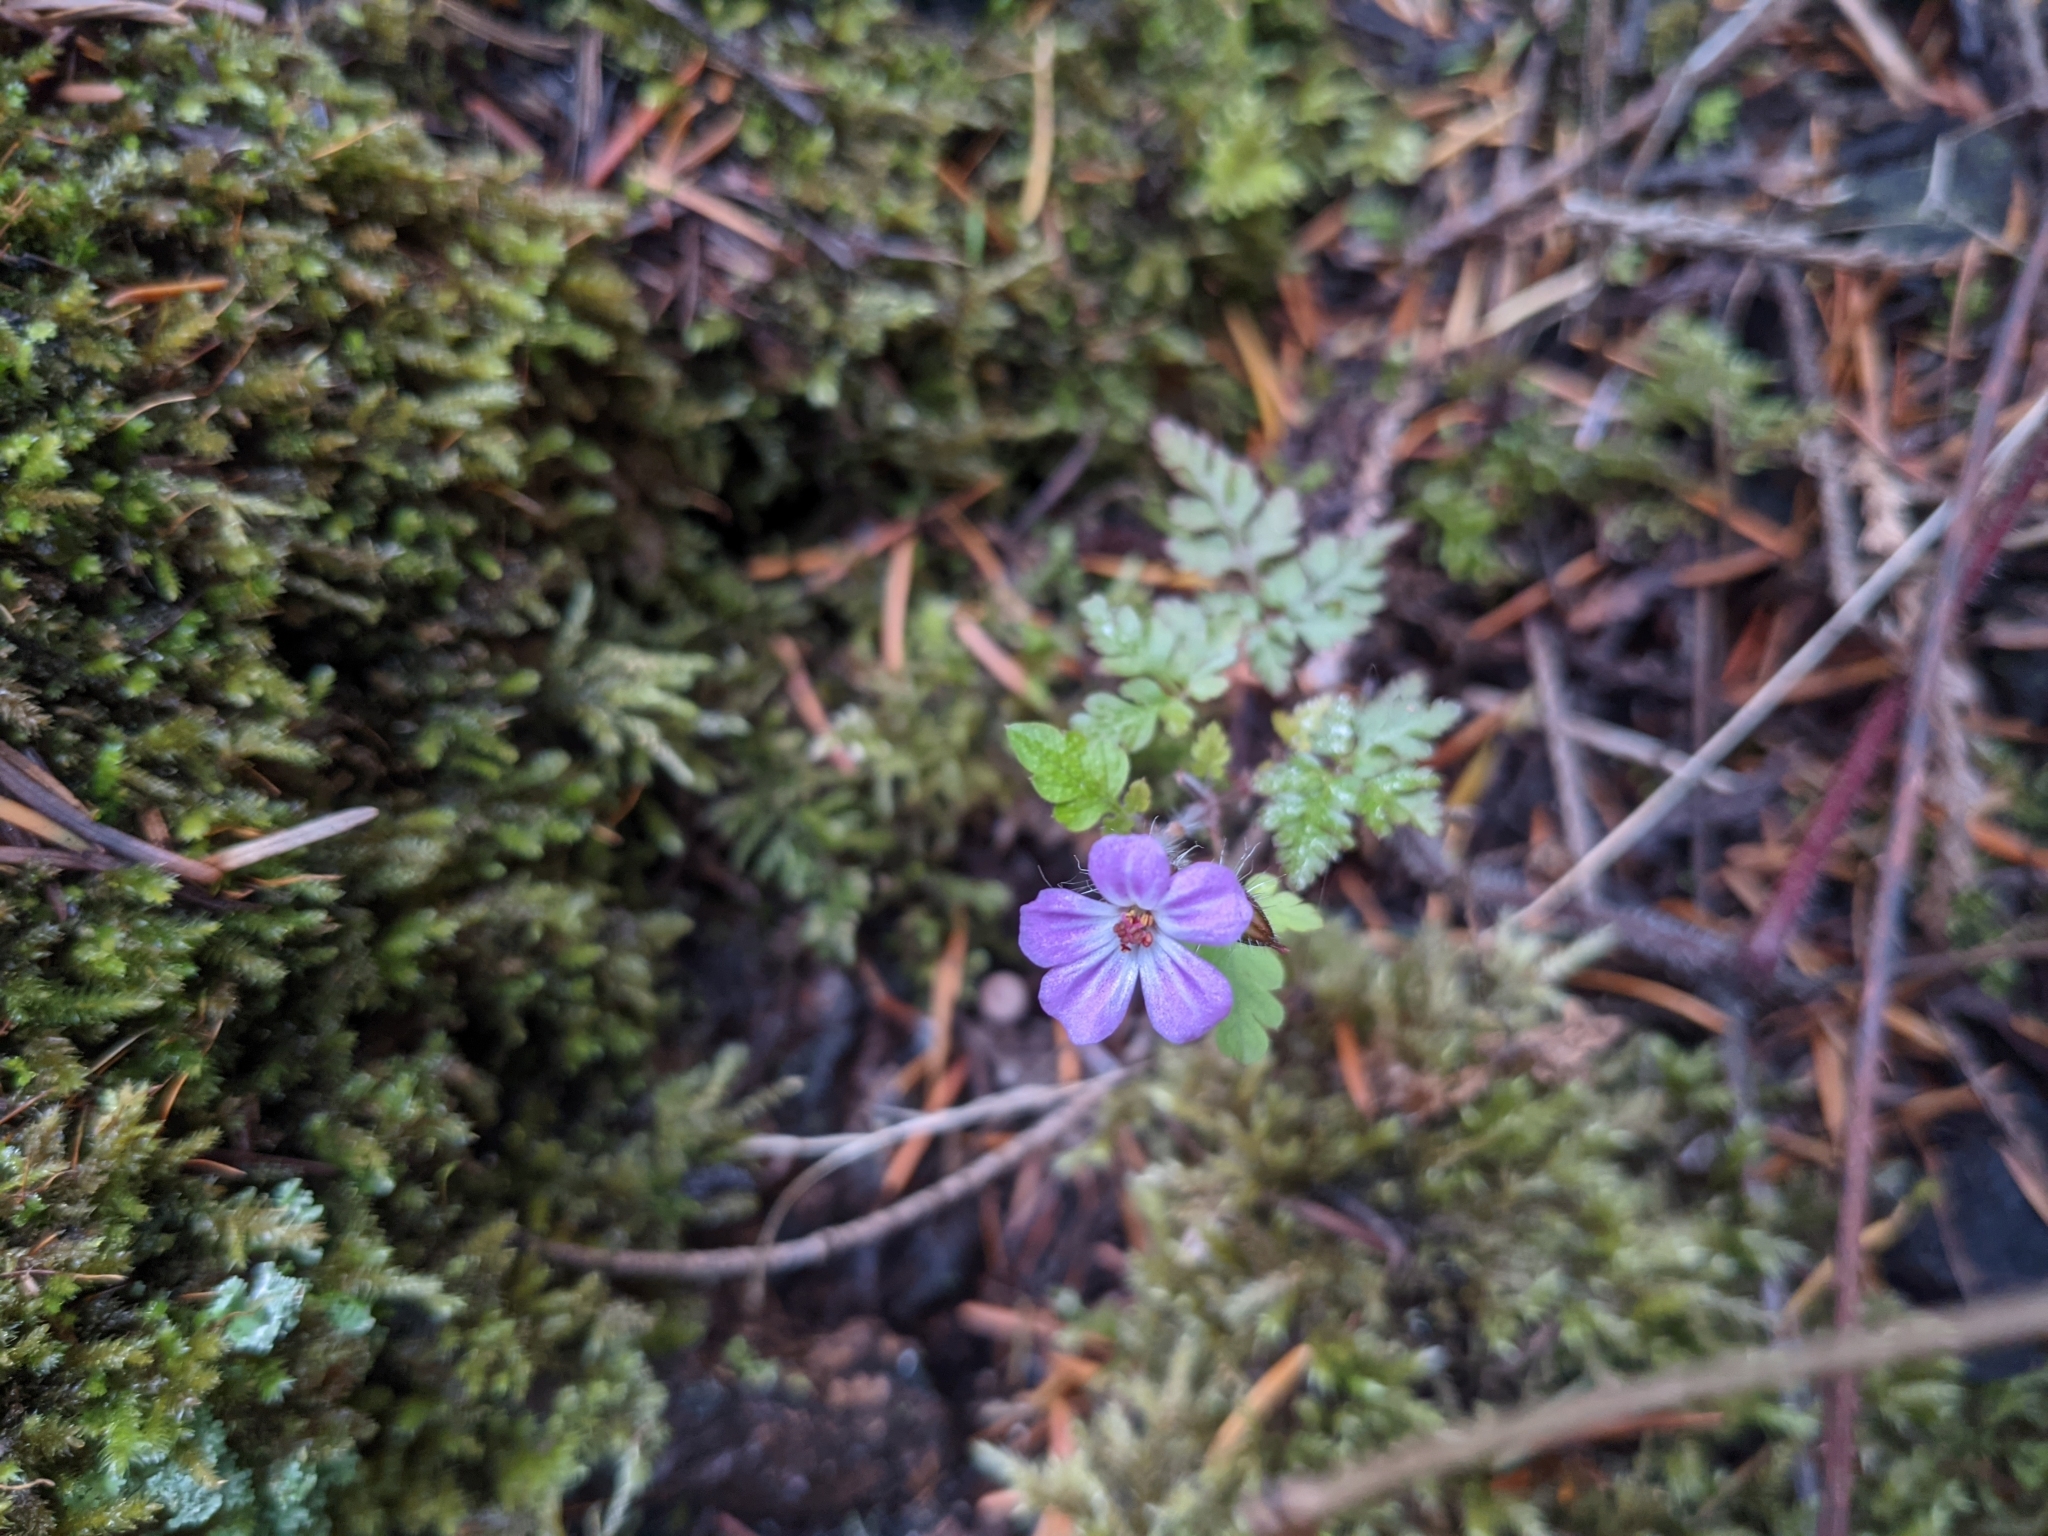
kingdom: Plantae
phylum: Tracheophyta
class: Magnoliopsida
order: Geraniales
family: Geraniaceae
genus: Geranium
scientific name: Geranium robertianum
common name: Herb-robert
